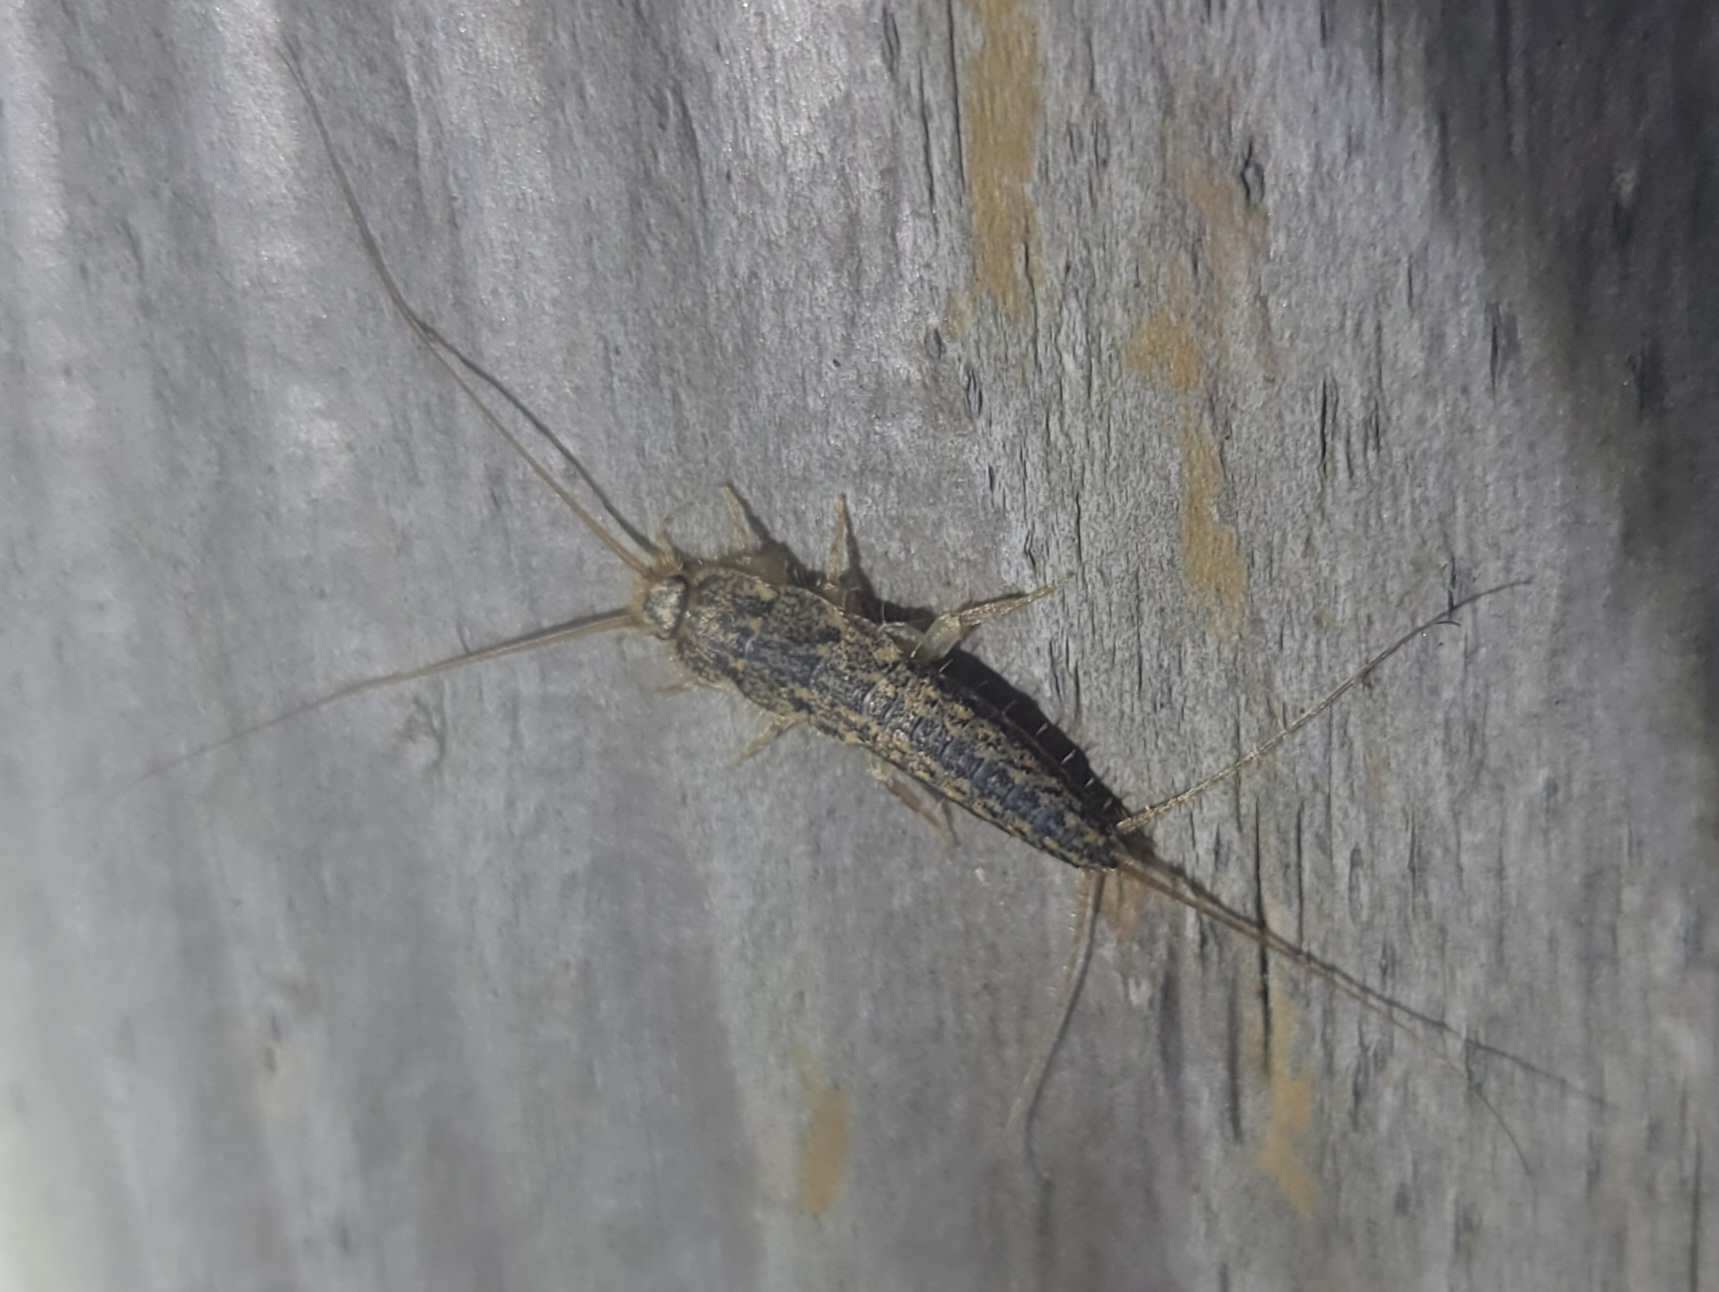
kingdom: Animalia
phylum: Arthropoda
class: Insecta
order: Zygentoma
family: Lepismatidae
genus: Ctenolepisma
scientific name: Ctenolepisma lineata
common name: Four-lined silverfish
